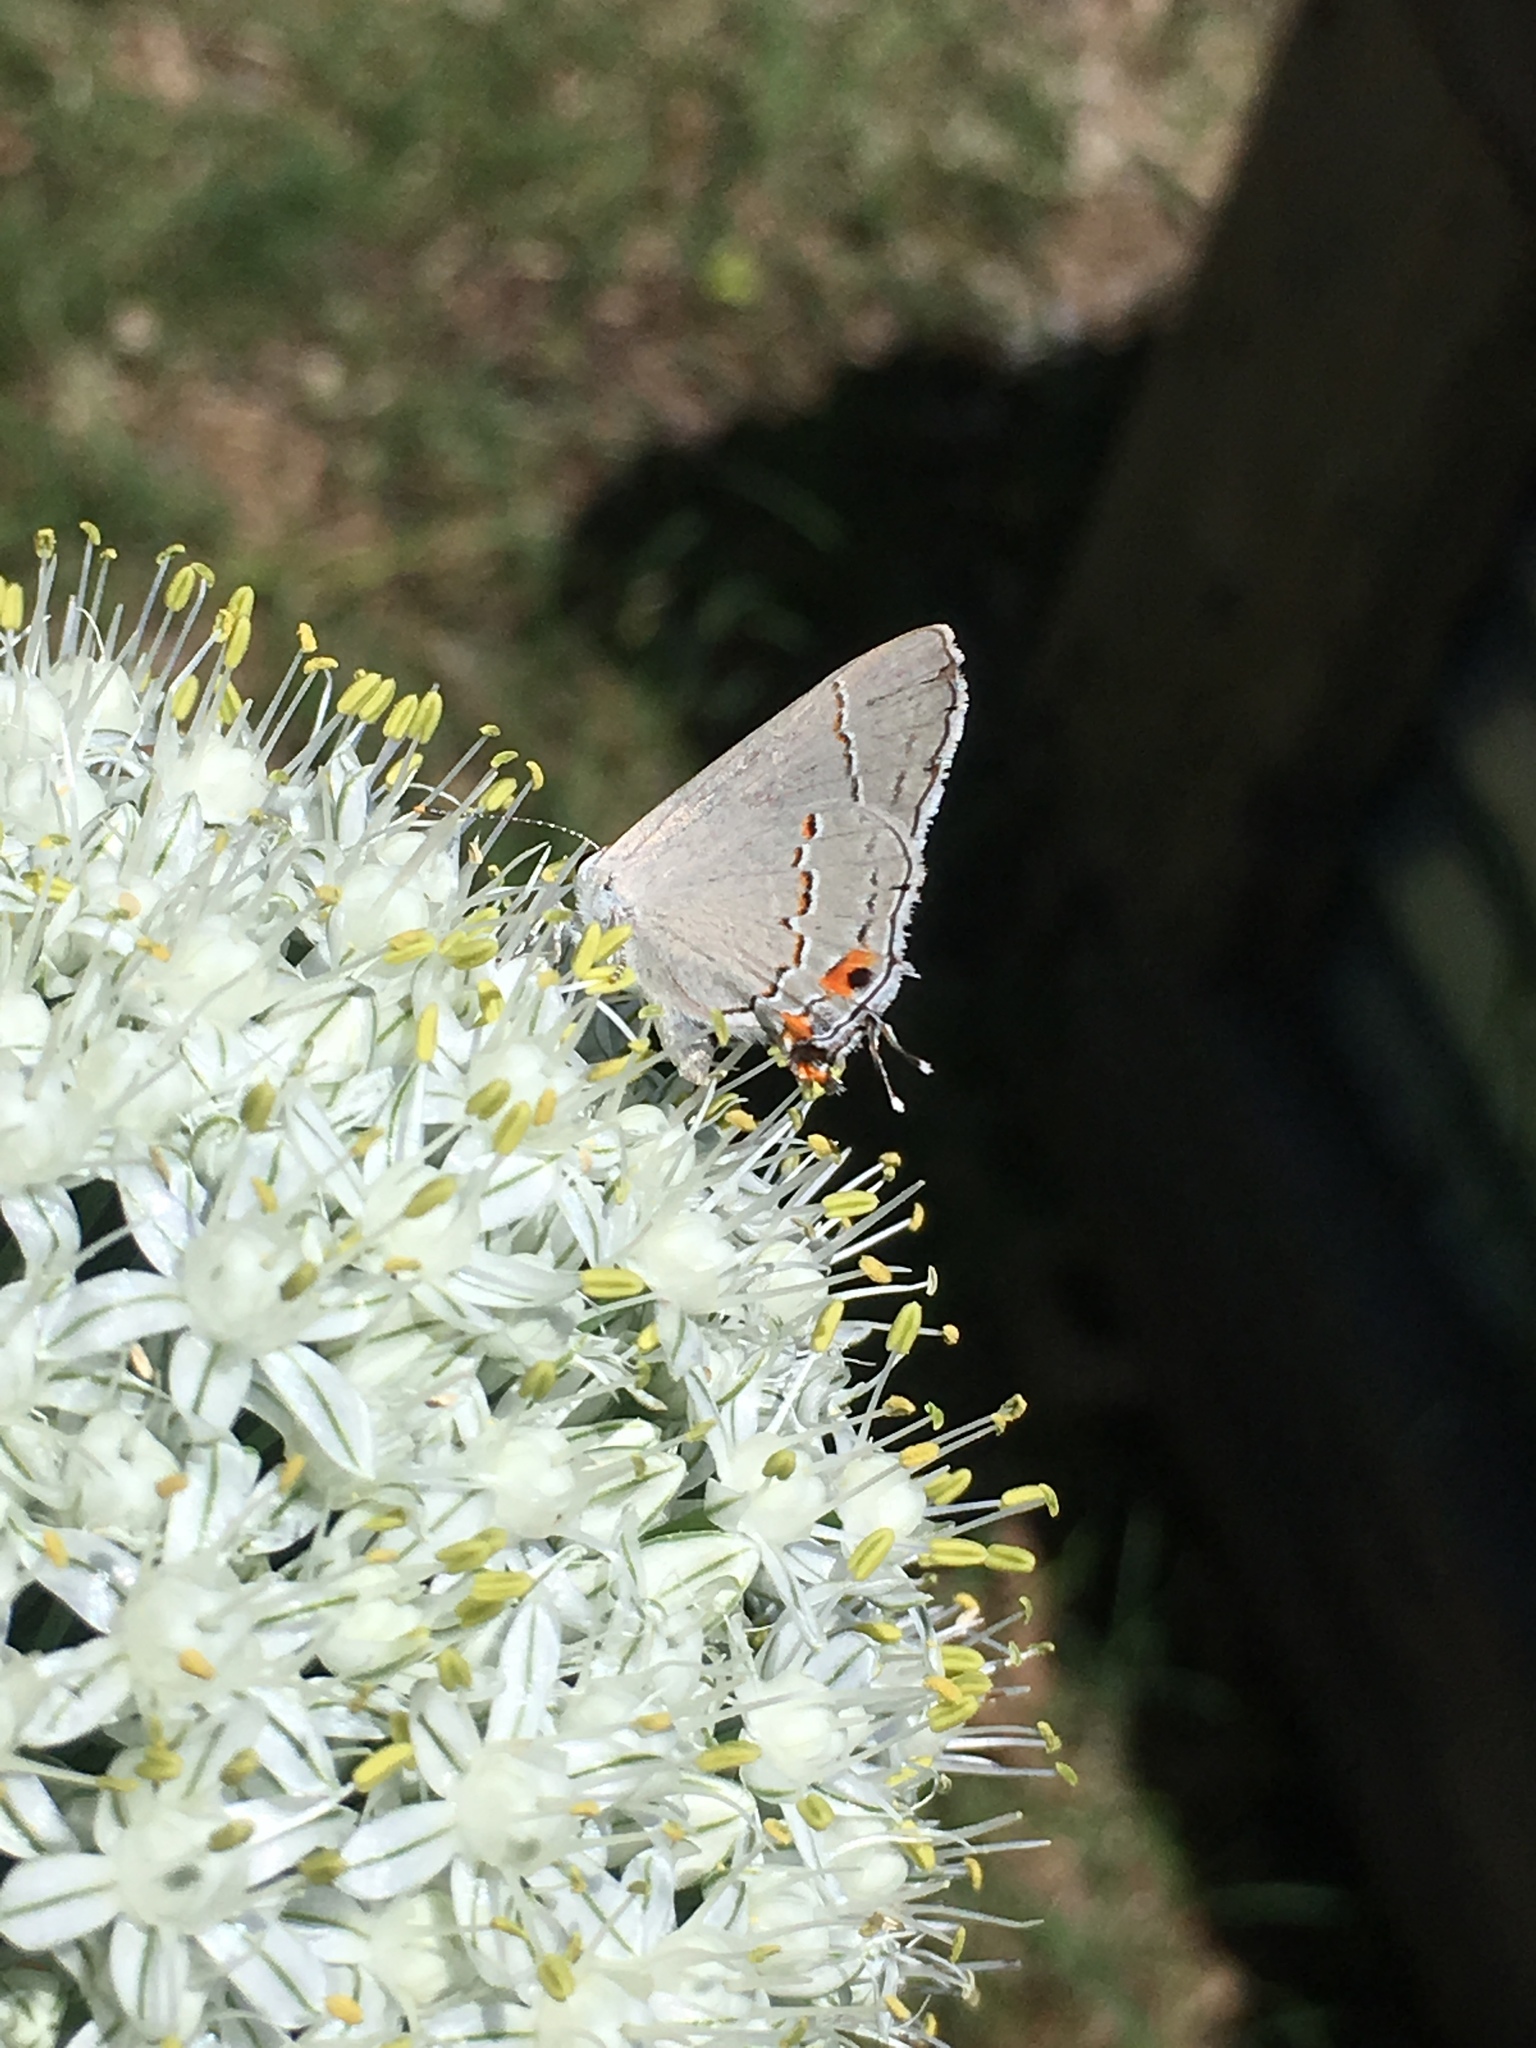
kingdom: Animalia
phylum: Arthropoda
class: Insecta
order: Lepidoptera
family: Lycaenidae
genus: Strymon
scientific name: Strymon melinus
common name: Gray hairstreak
